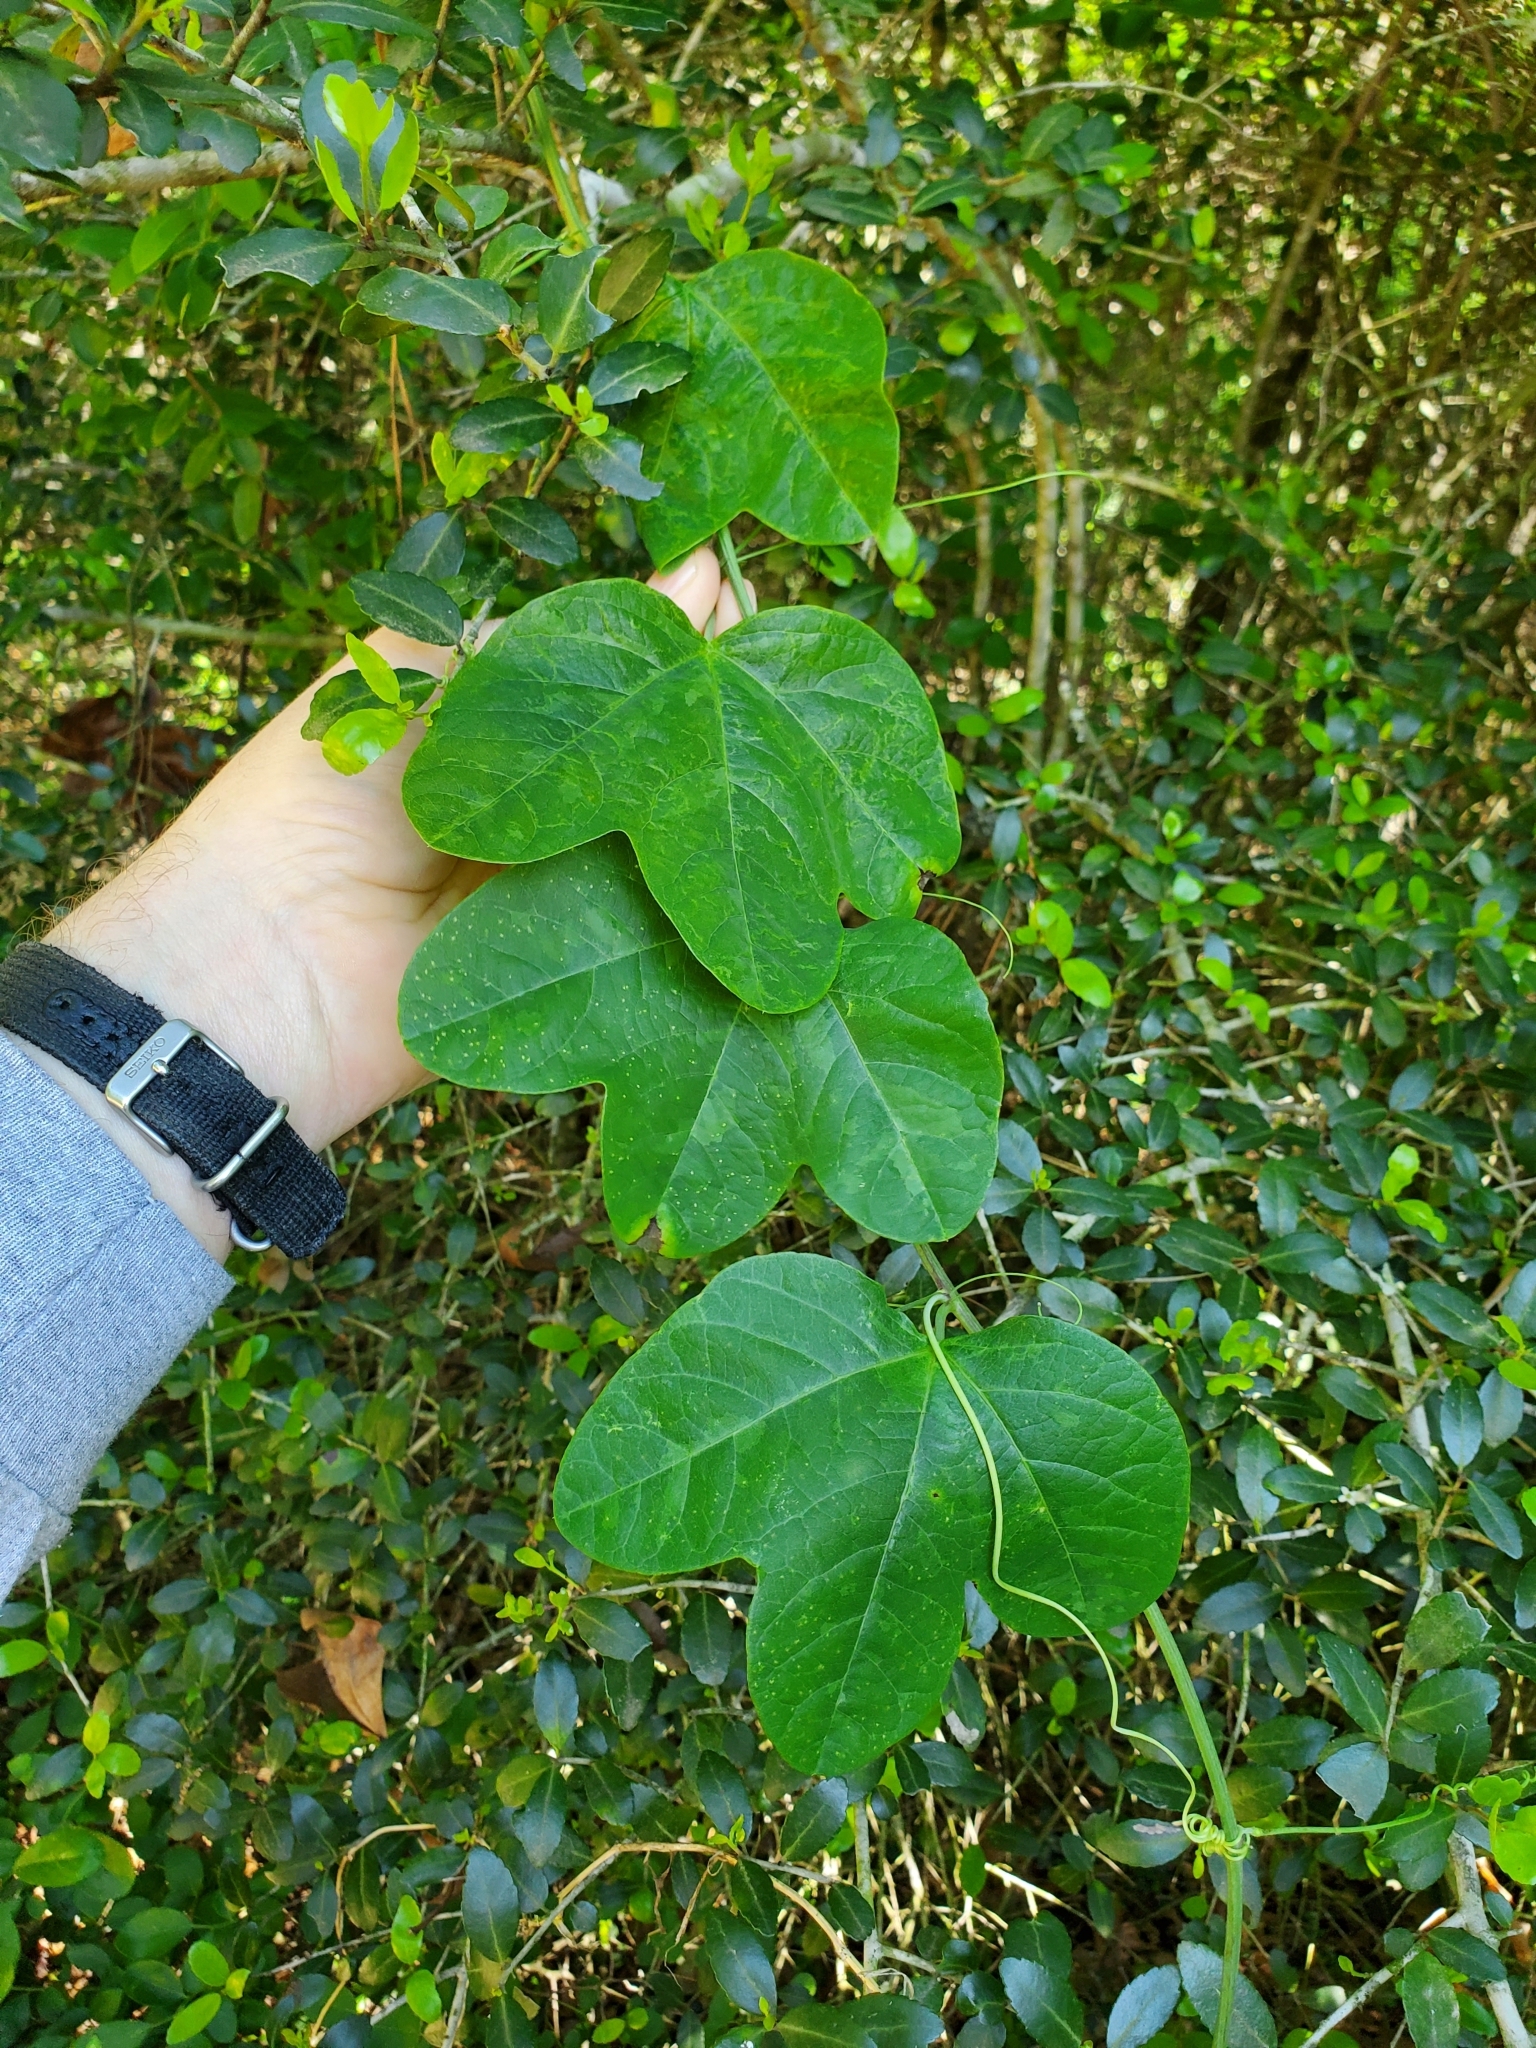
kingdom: Plantae
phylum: Tracheophyta
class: Magnoliopsida
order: Malpighiales
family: Passifloraceae
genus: Passiflora
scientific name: Passiflora lutea
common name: Yellow passionflower
